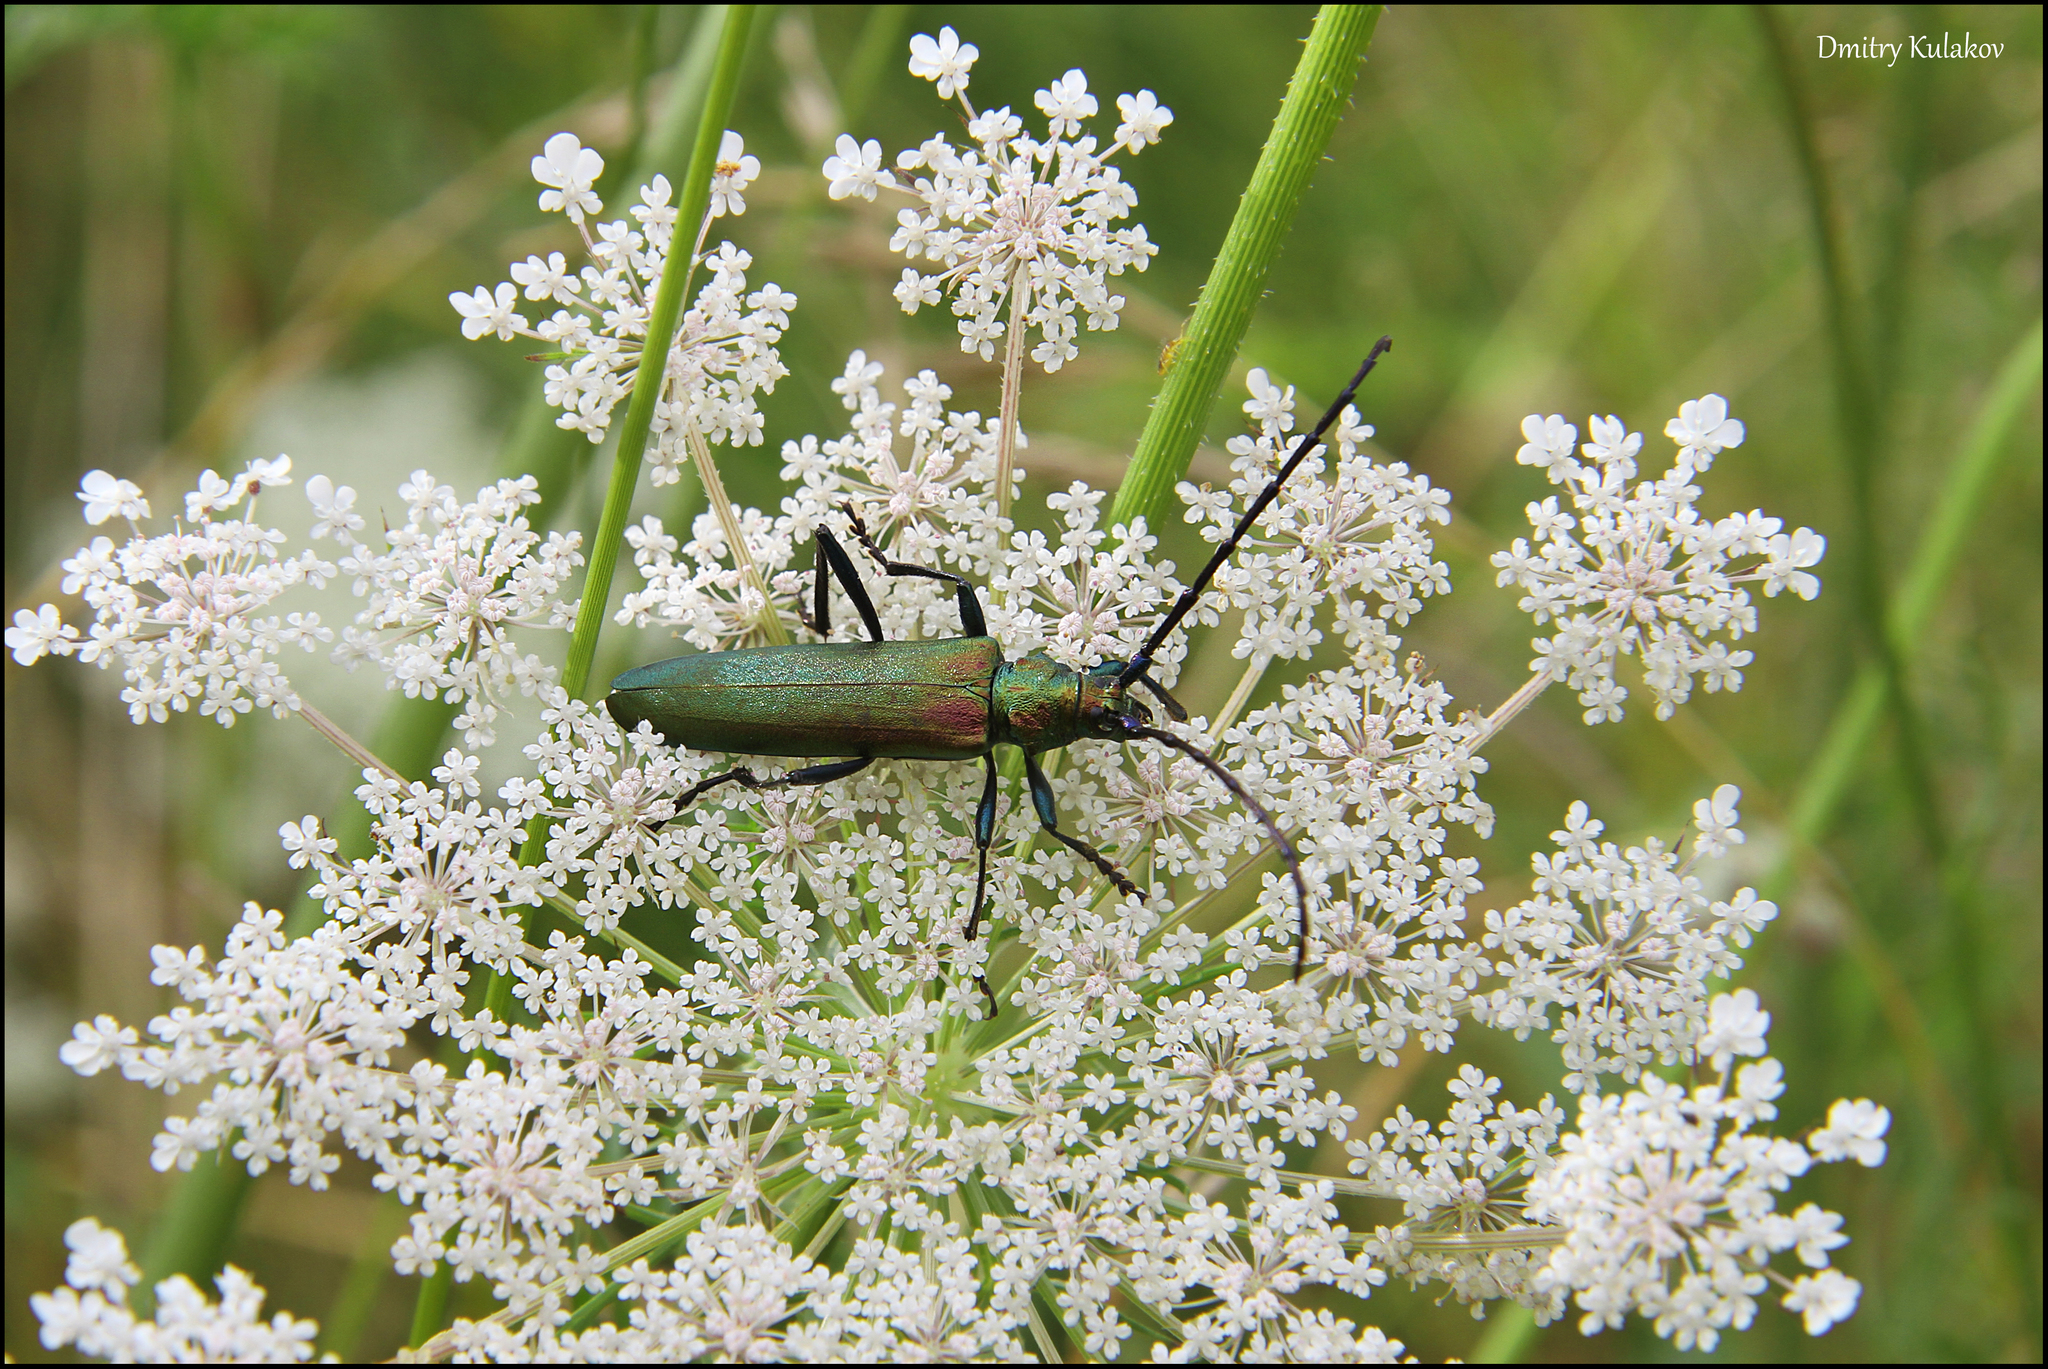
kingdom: Animalia
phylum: Arthropoda
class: Insecta
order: Coleoptera
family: Cerambycidae
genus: Aromia
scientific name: Aromia moschata
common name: Musk beetle
